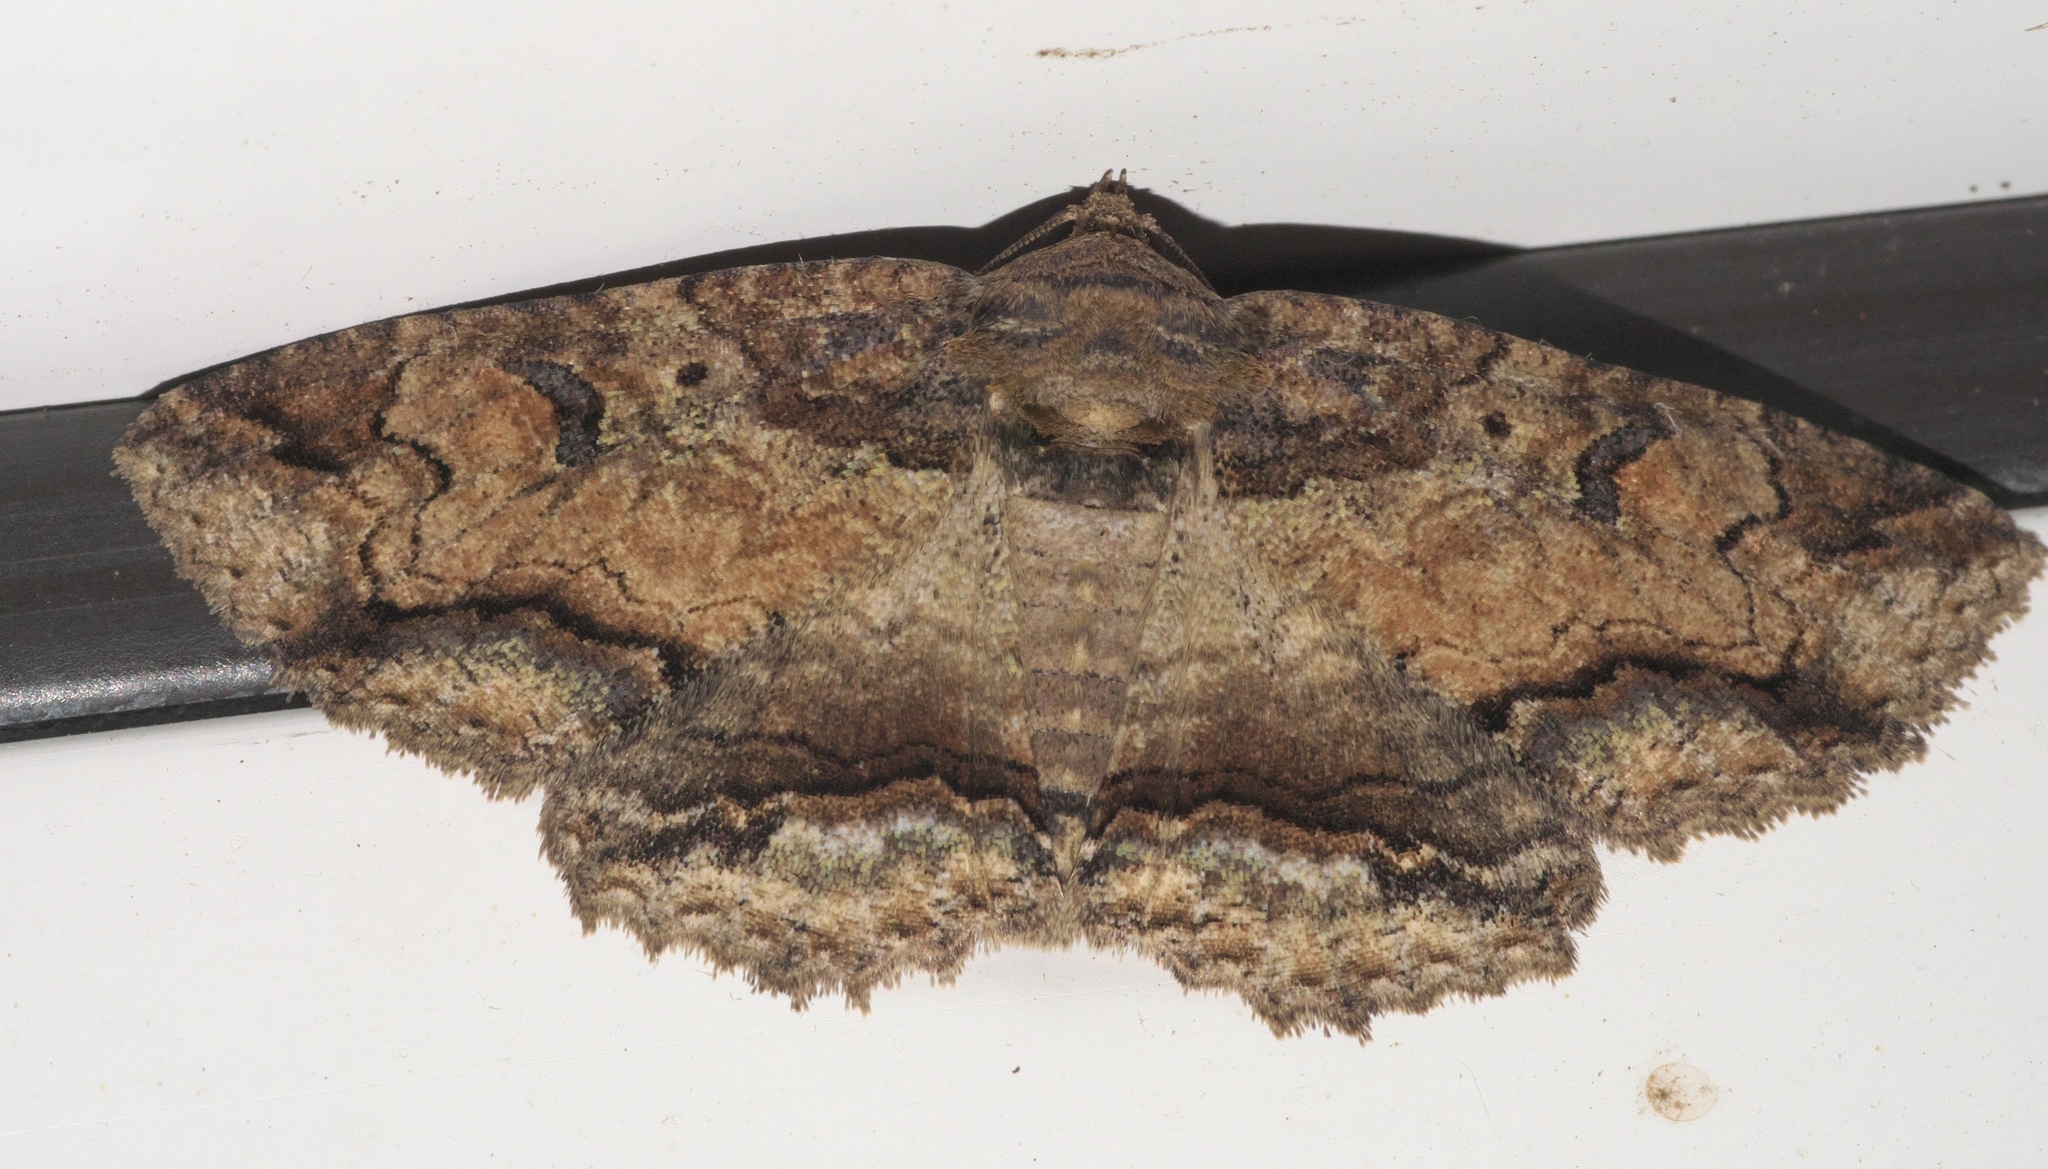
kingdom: Animalia
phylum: Arthropoda
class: Insecta
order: Lepidoptera
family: Erebidae
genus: Zale
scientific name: Zale galbanata
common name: Maple zale
